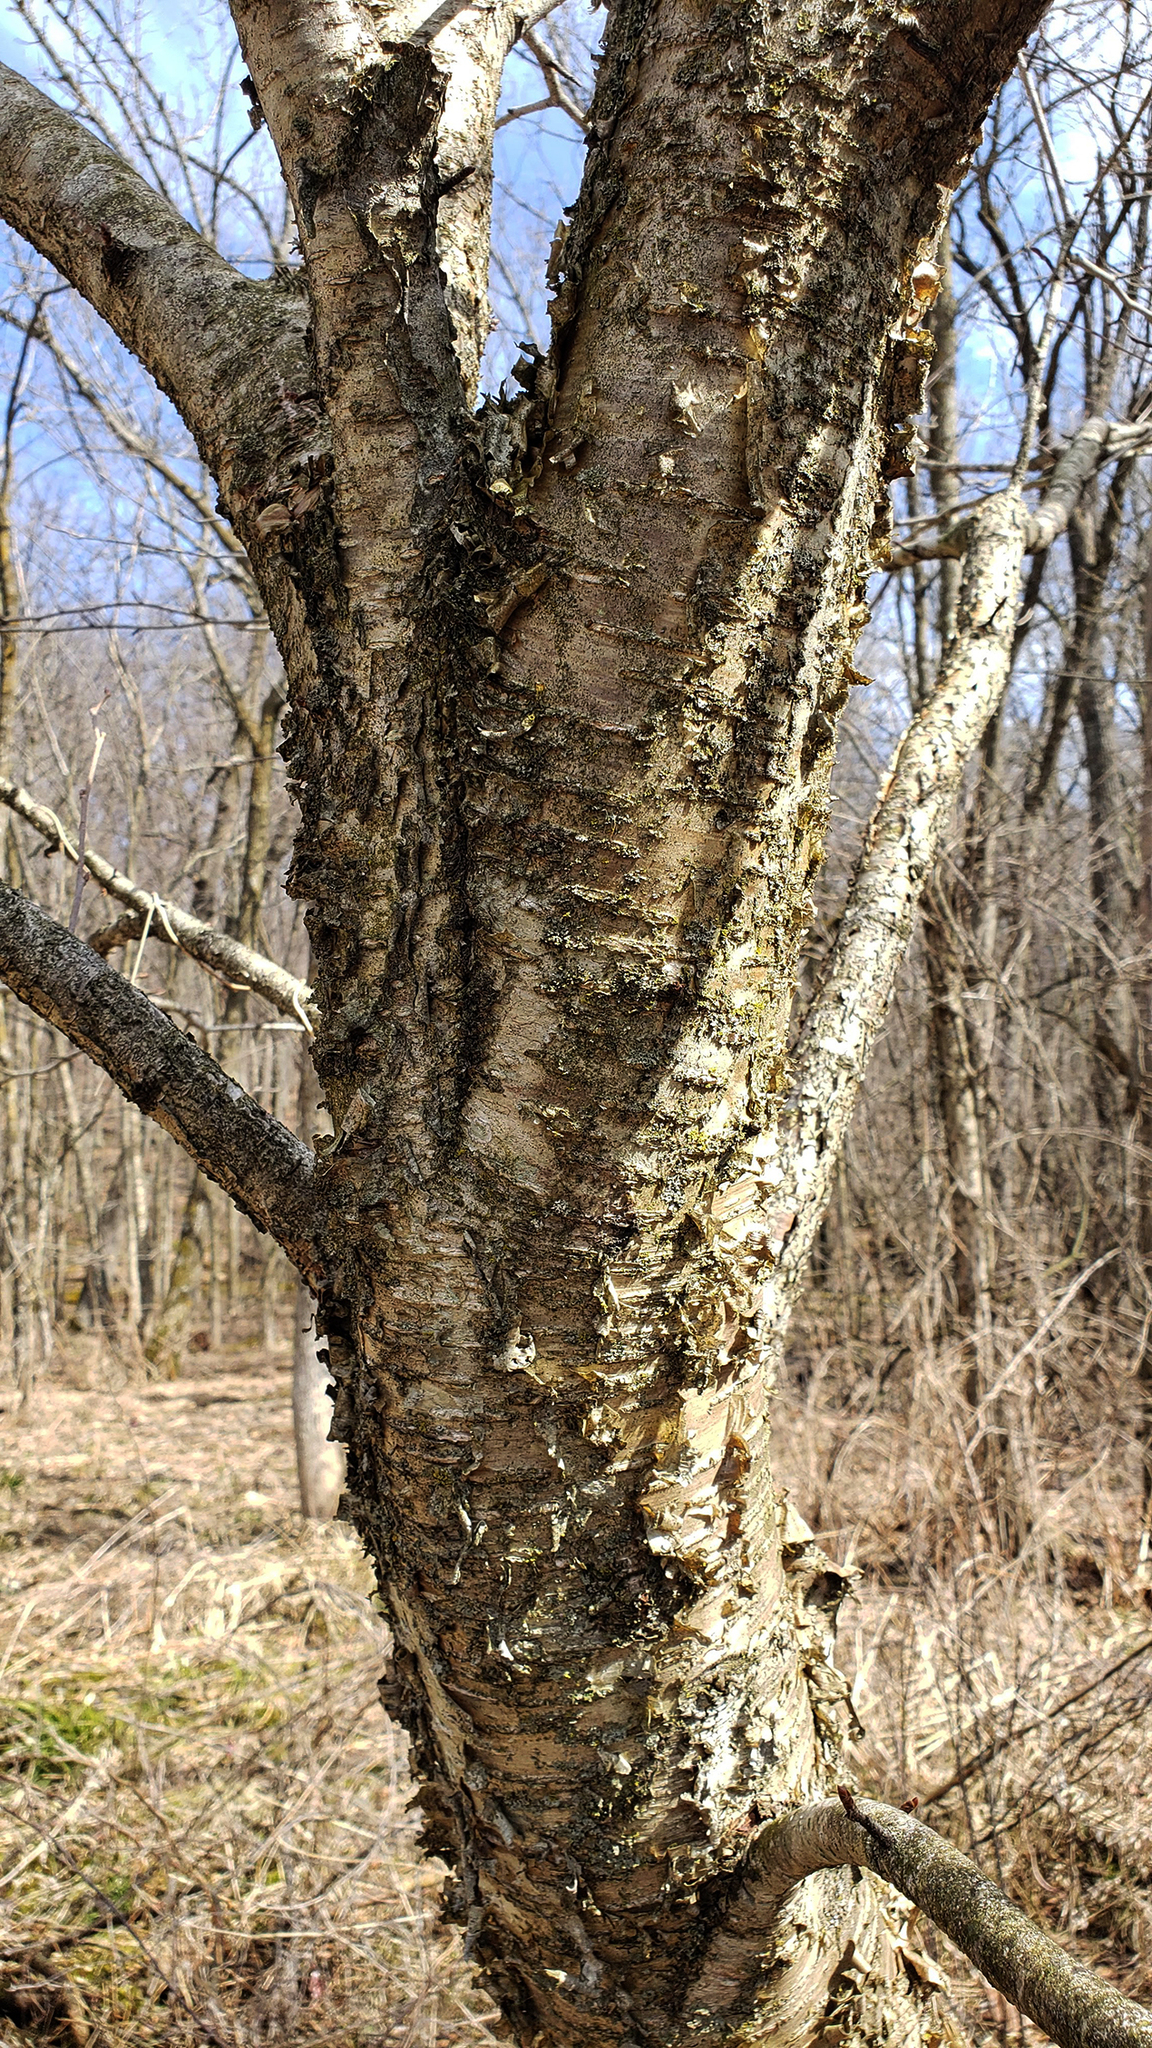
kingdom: Plantae
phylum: Tracheophyta
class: Magnoliopsida
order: Fagales
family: Betulaceae
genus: Betula
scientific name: Betula alleghaniensis
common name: Yellow birch
